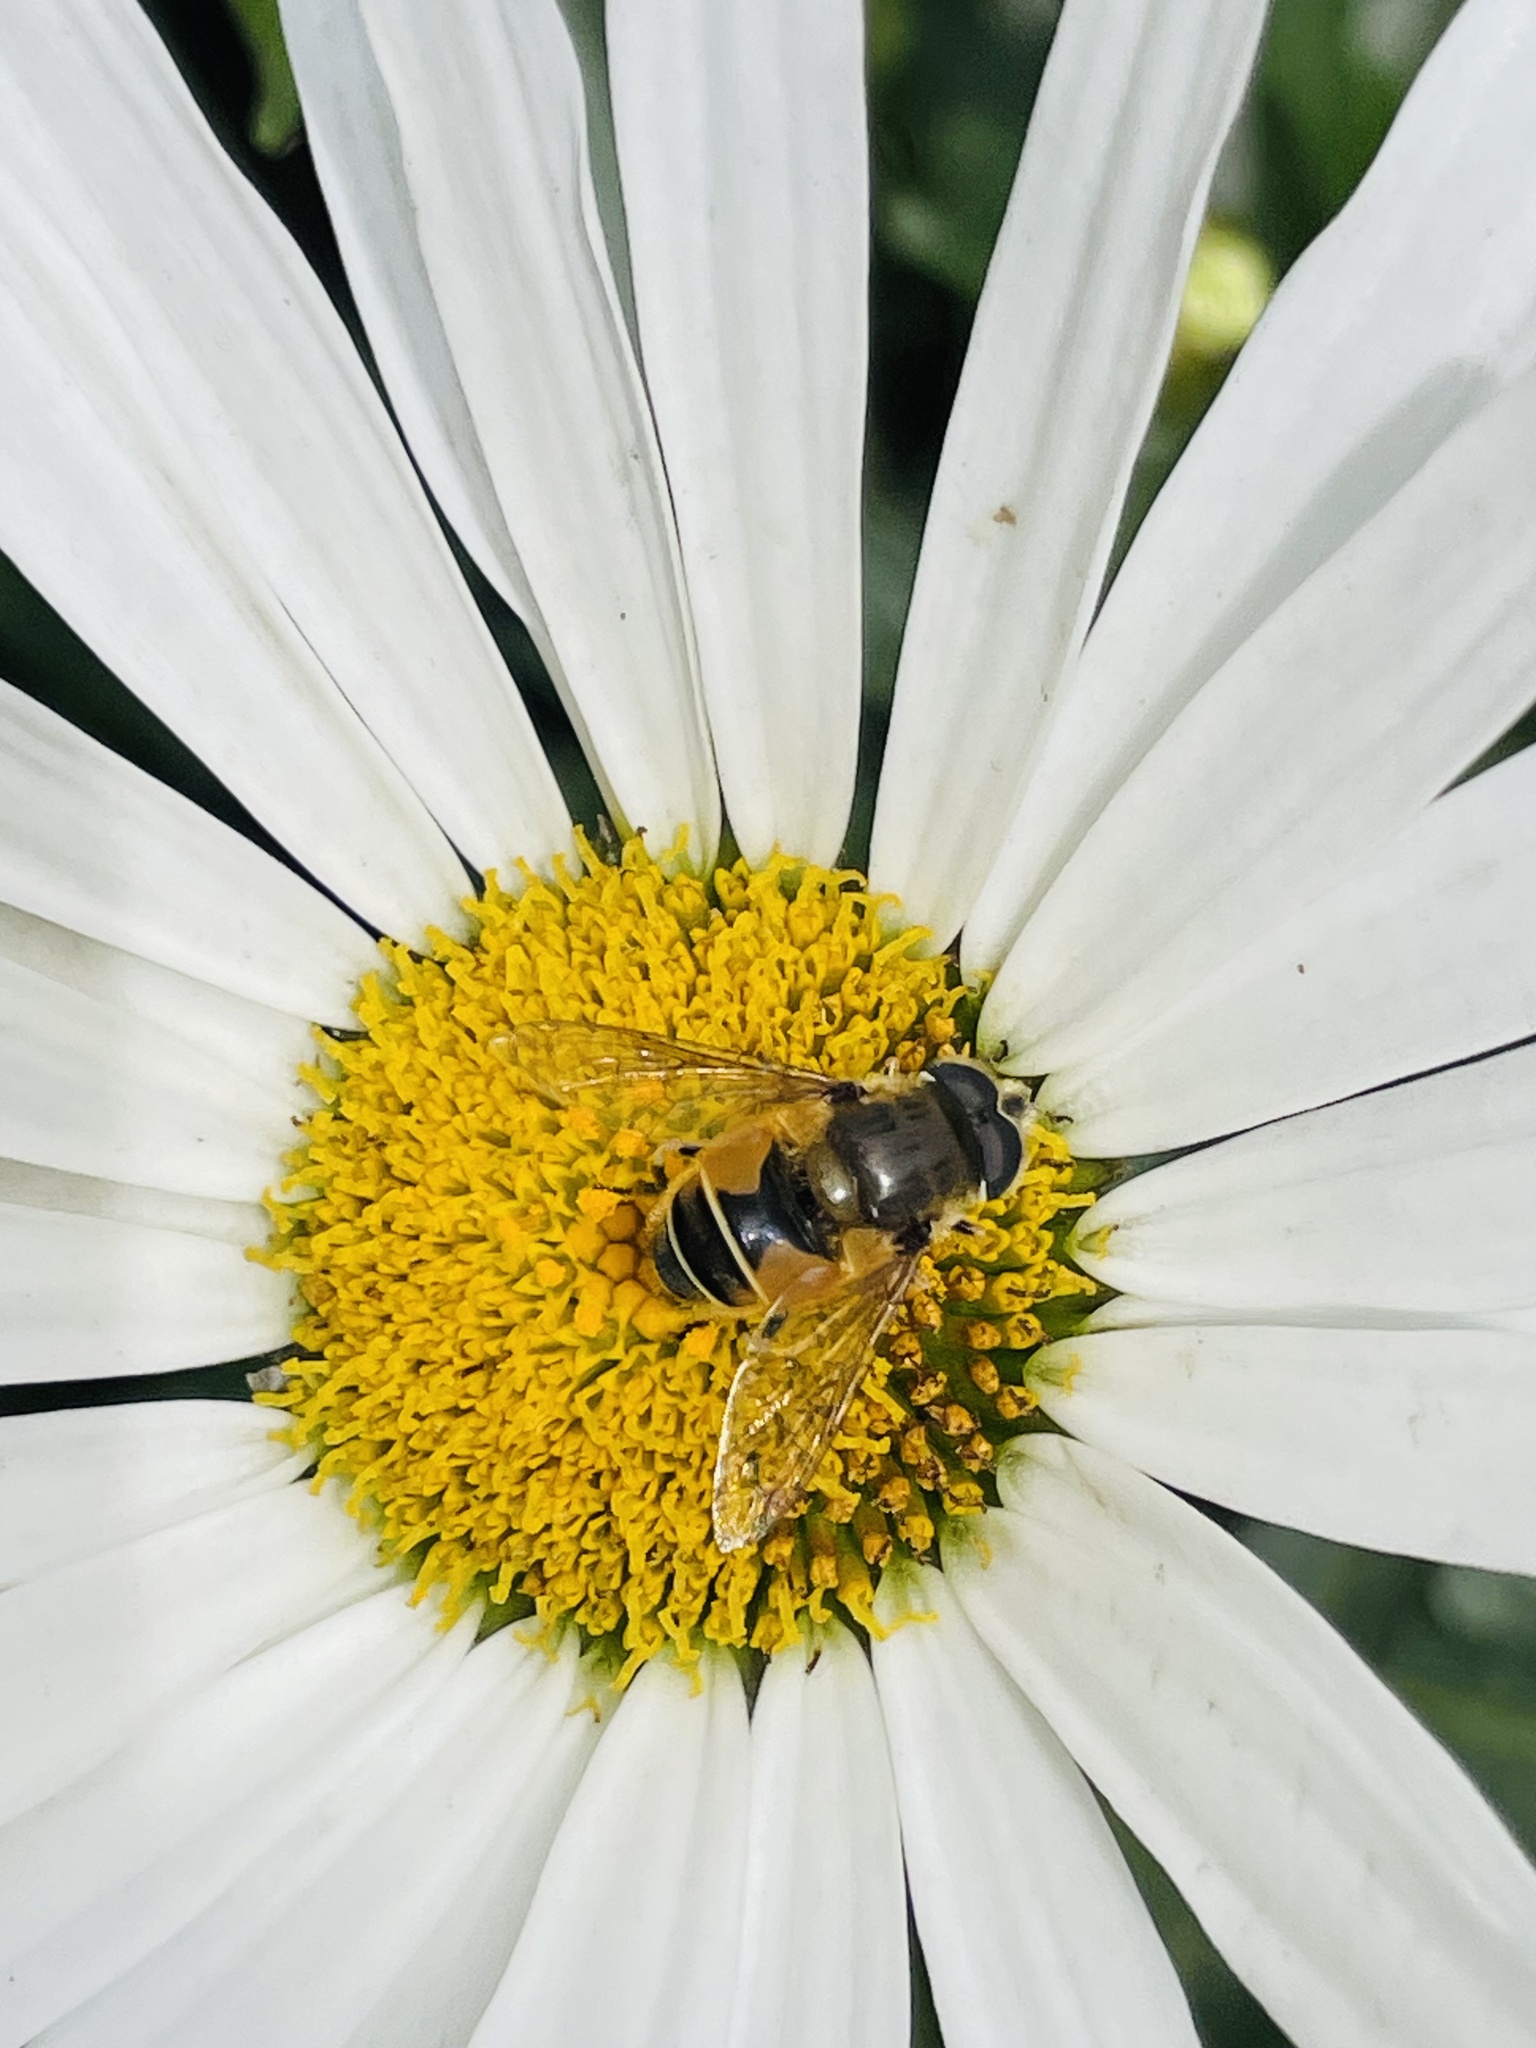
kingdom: Animalia
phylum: Arthropoda
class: Insecta
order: Diptera
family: Syrphidae
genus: Eristalis
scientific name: Eristalis bogotensis
